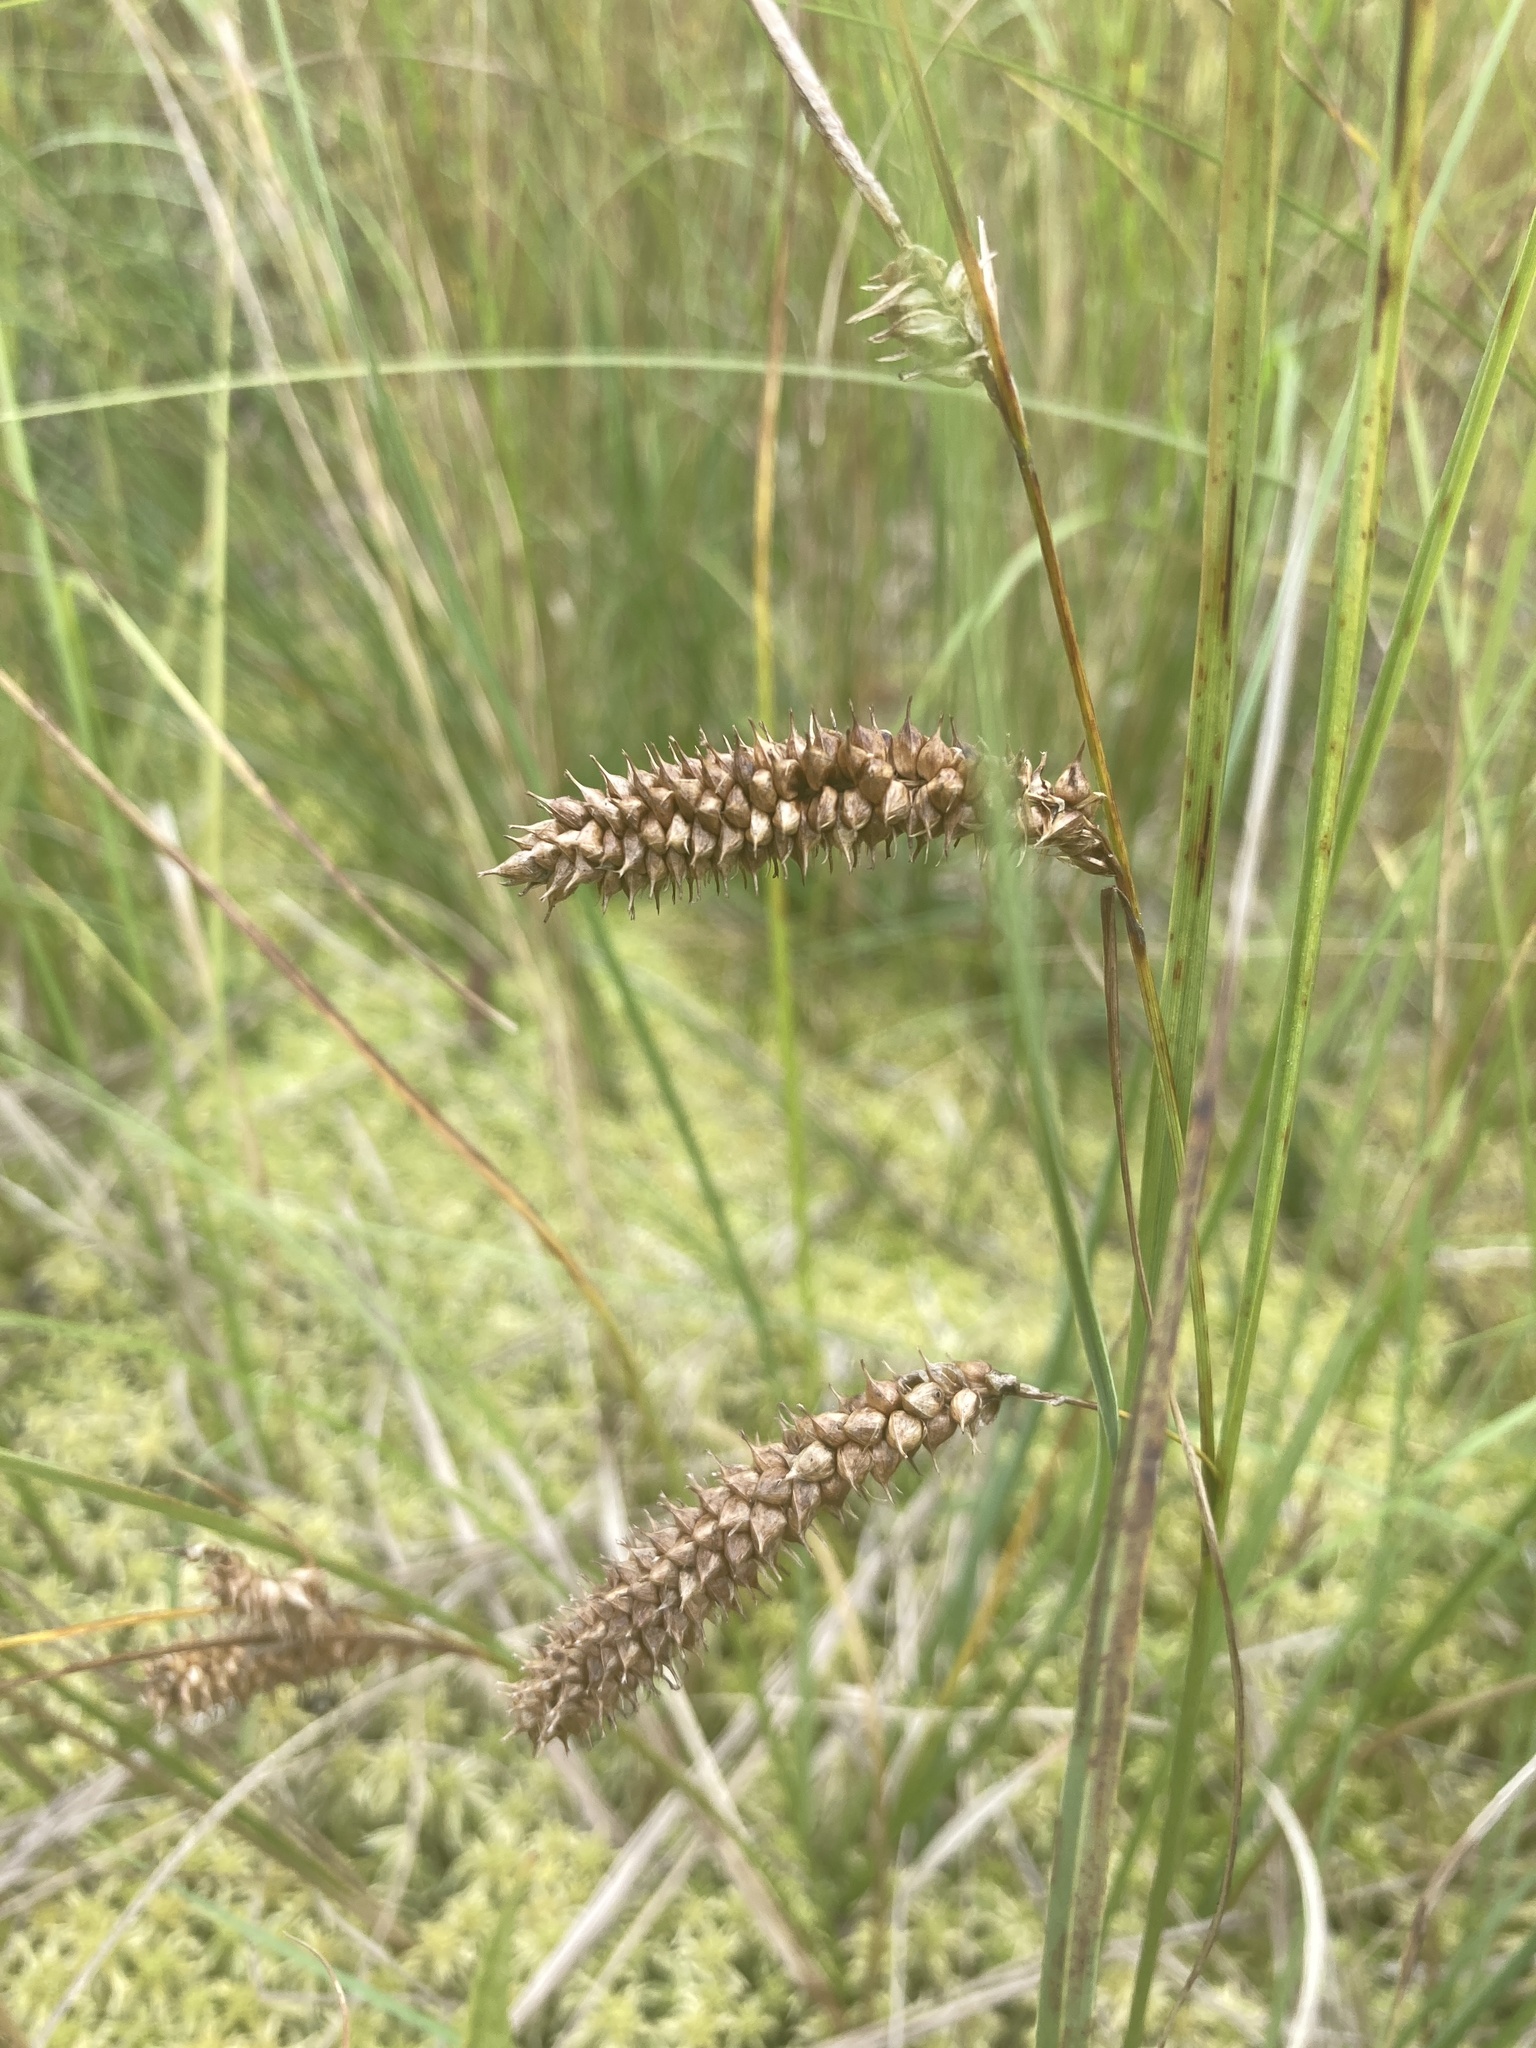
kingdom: Plantae
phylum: Tracheophyta
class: Liliopsida
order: Poales
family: Cyperaceae
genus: Carex
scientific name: Carex rostrata
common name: Bottle sedge
